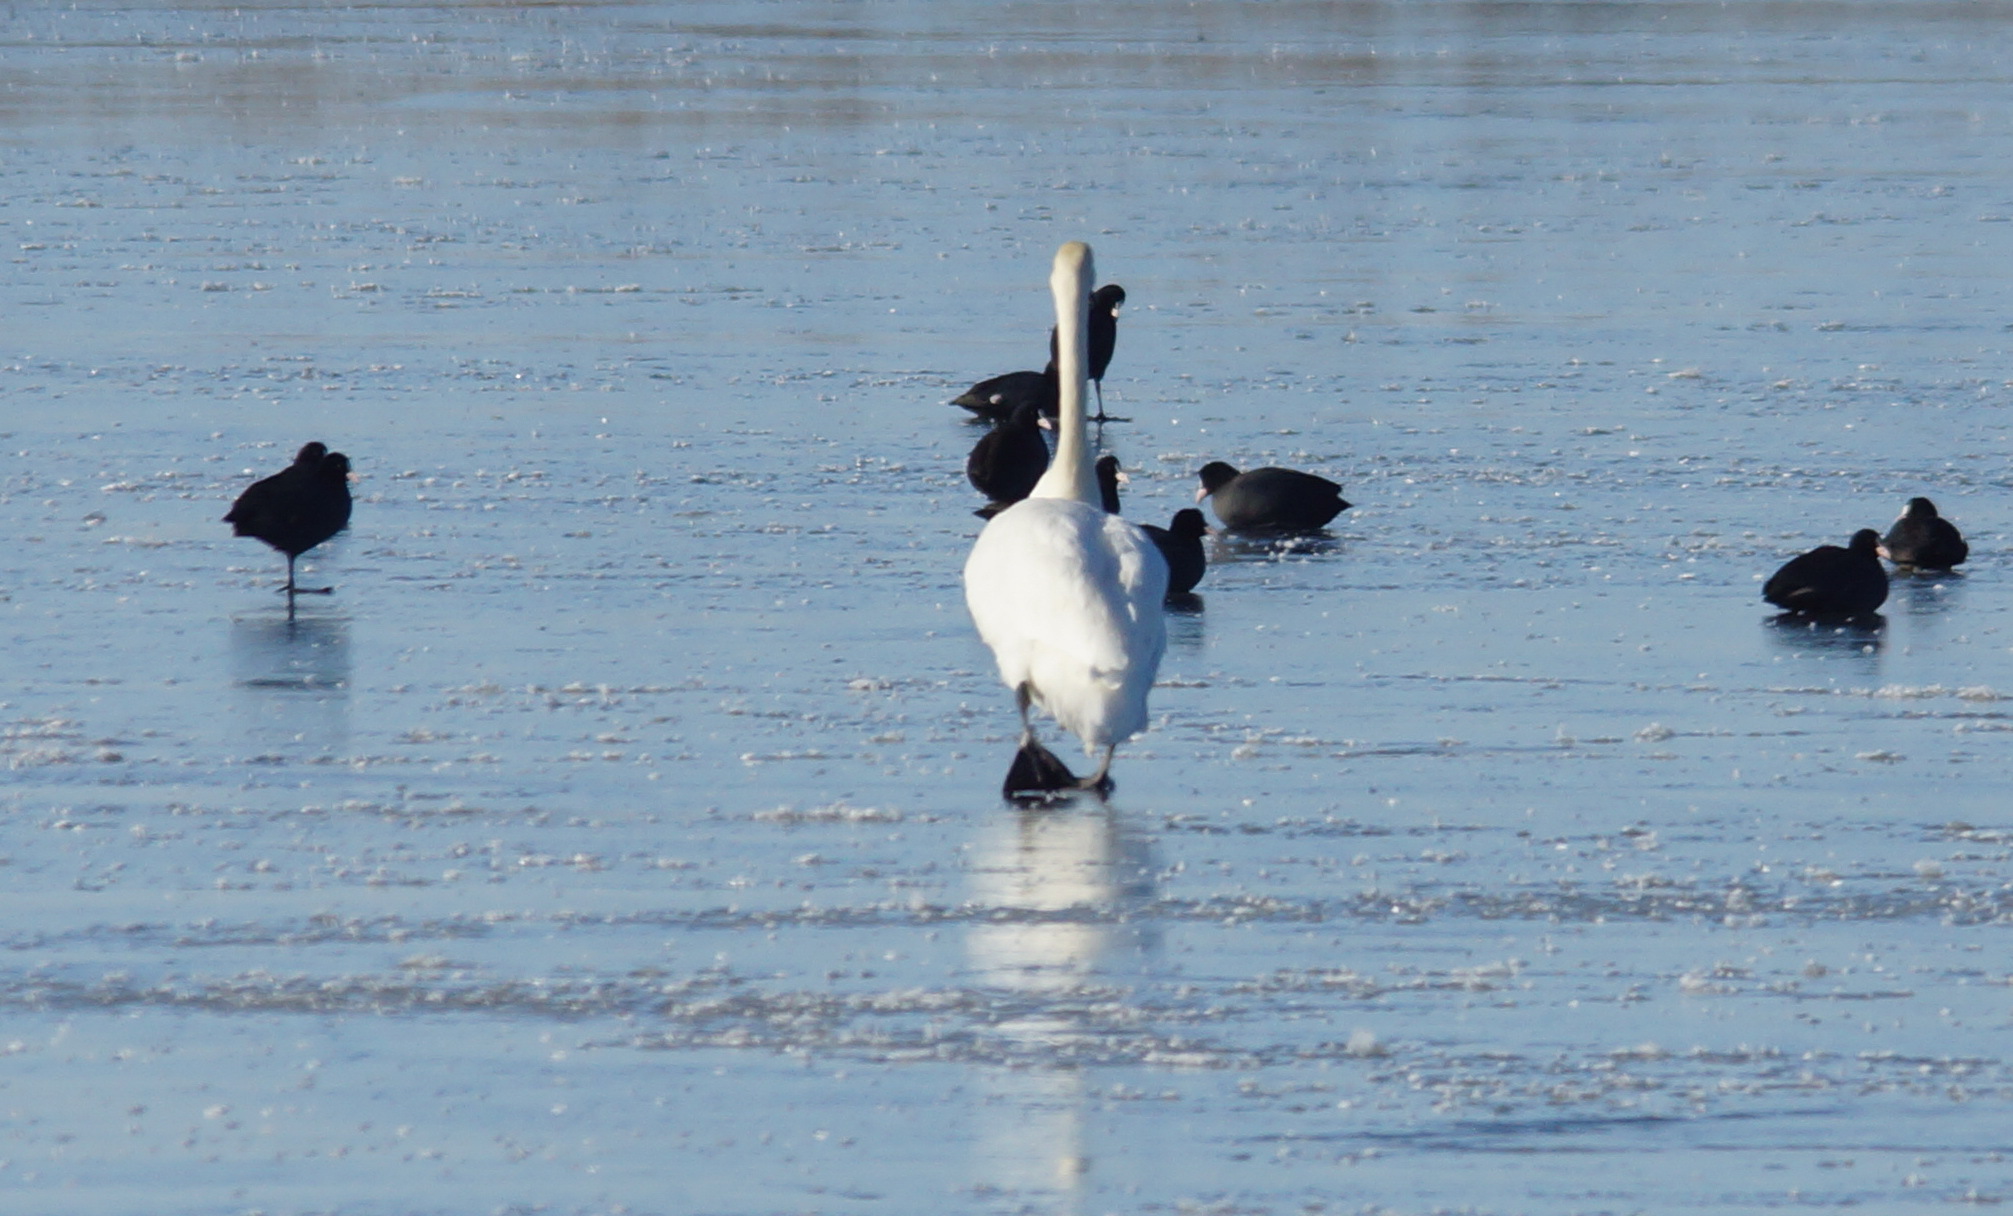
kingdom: Animalia
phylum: Chordata
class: Aves
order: Anseriformes
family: Anatidae
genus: Cygnus
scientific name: Cygnus olor
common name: Mute swan
